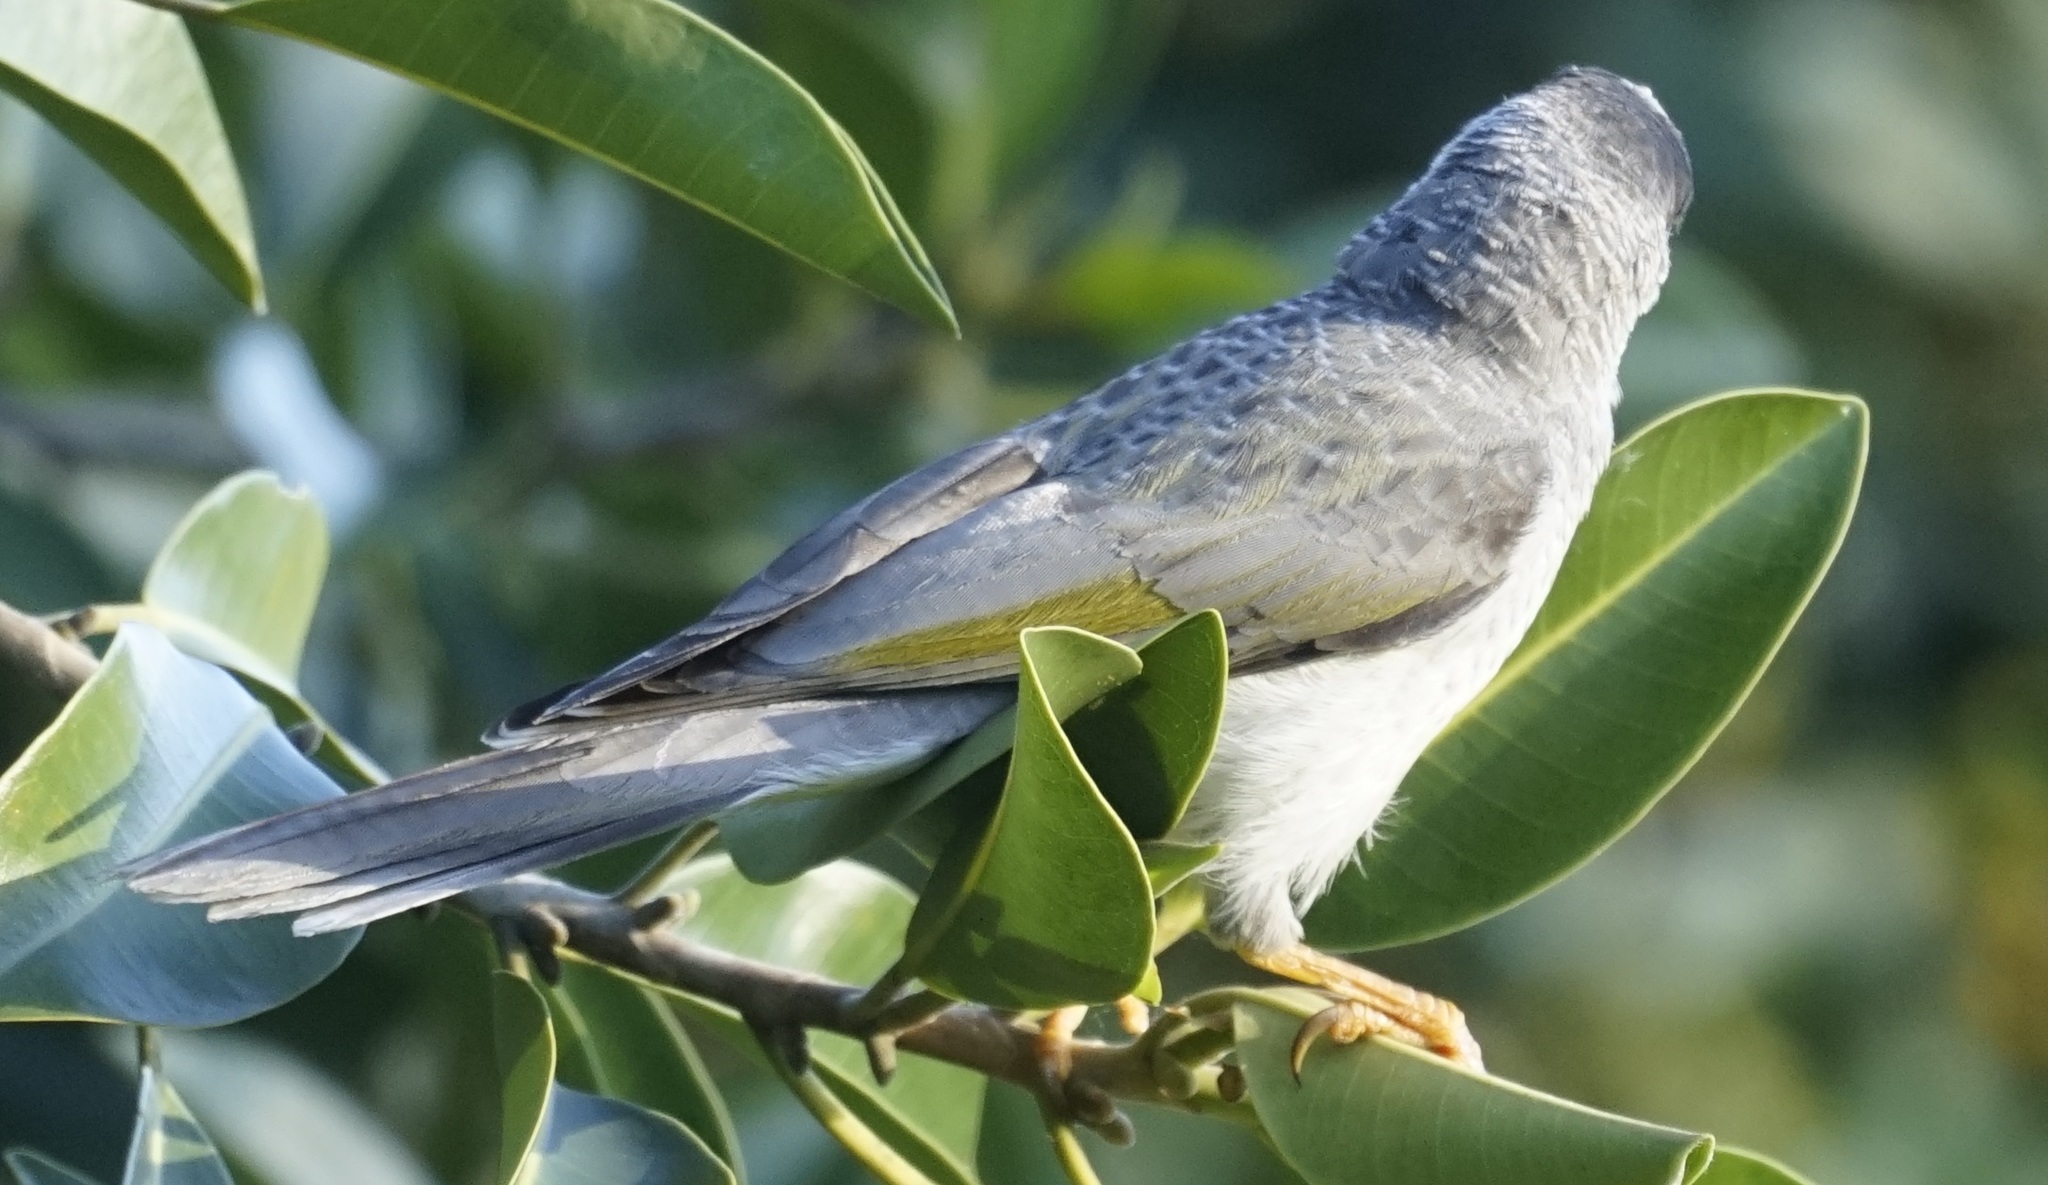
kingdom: Animalia
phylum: Chordata
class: Aves
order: Passeriformes
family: Meliphagidae
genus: Manorina
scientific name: Manorina melanocephala
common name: Noisy miner
